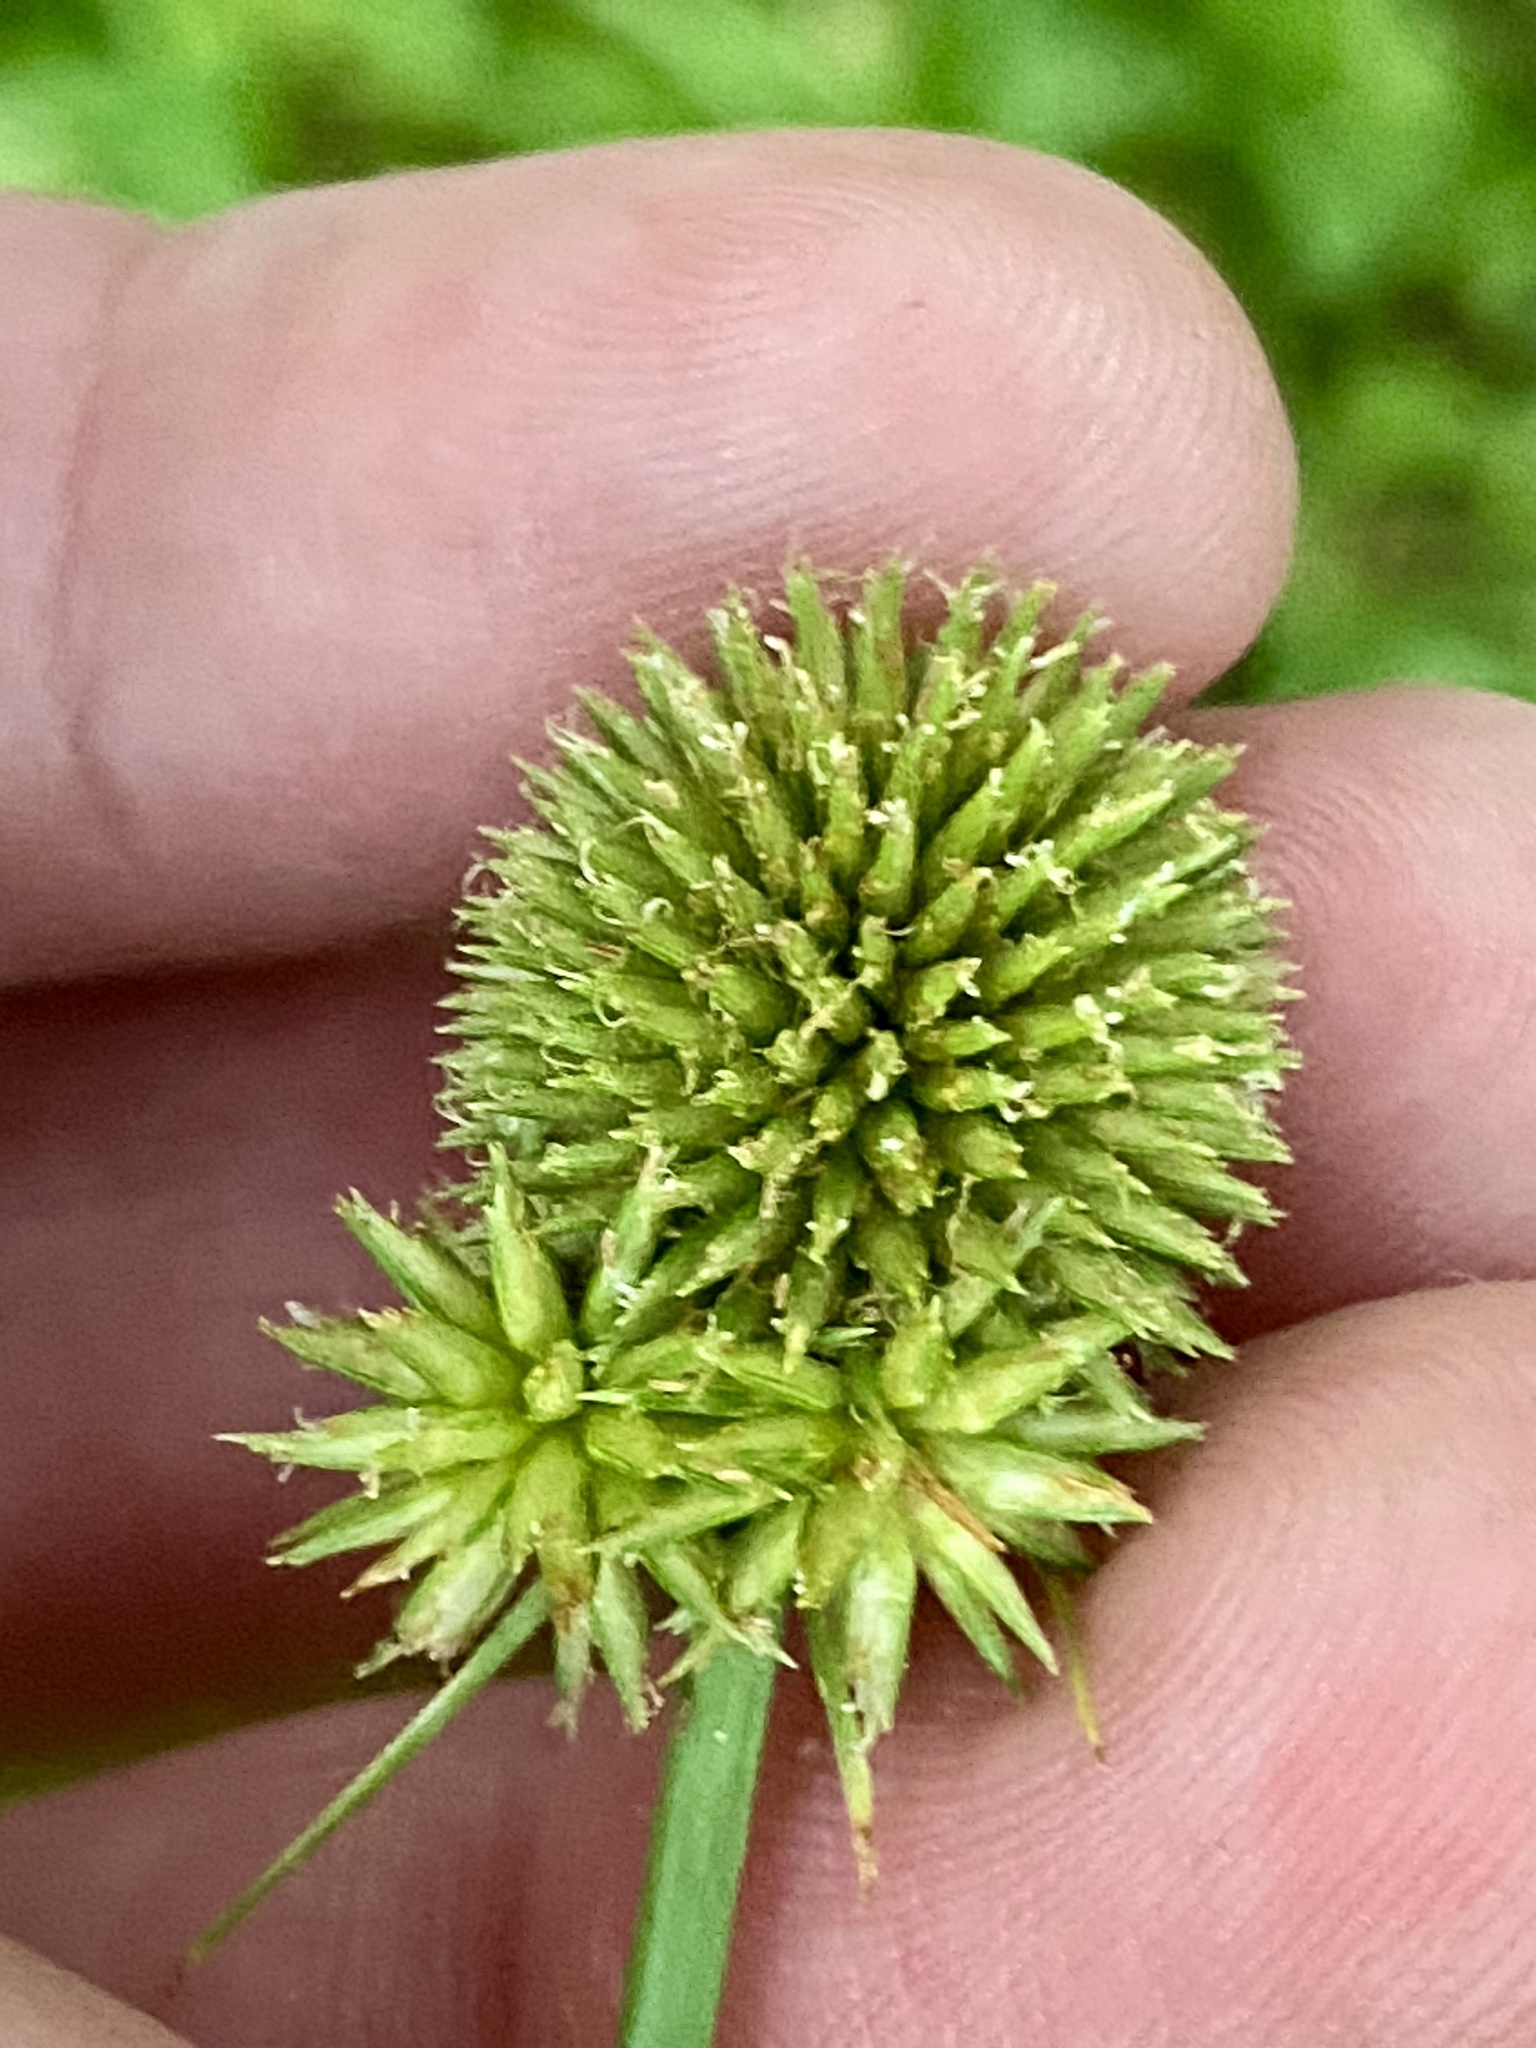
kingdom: Plantae
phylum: Tracheophyta
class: Liliopsida
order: Poales
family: Cyperaceae
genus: Cyperus
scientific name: Cyperus echinatus
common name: Teasel sedge
